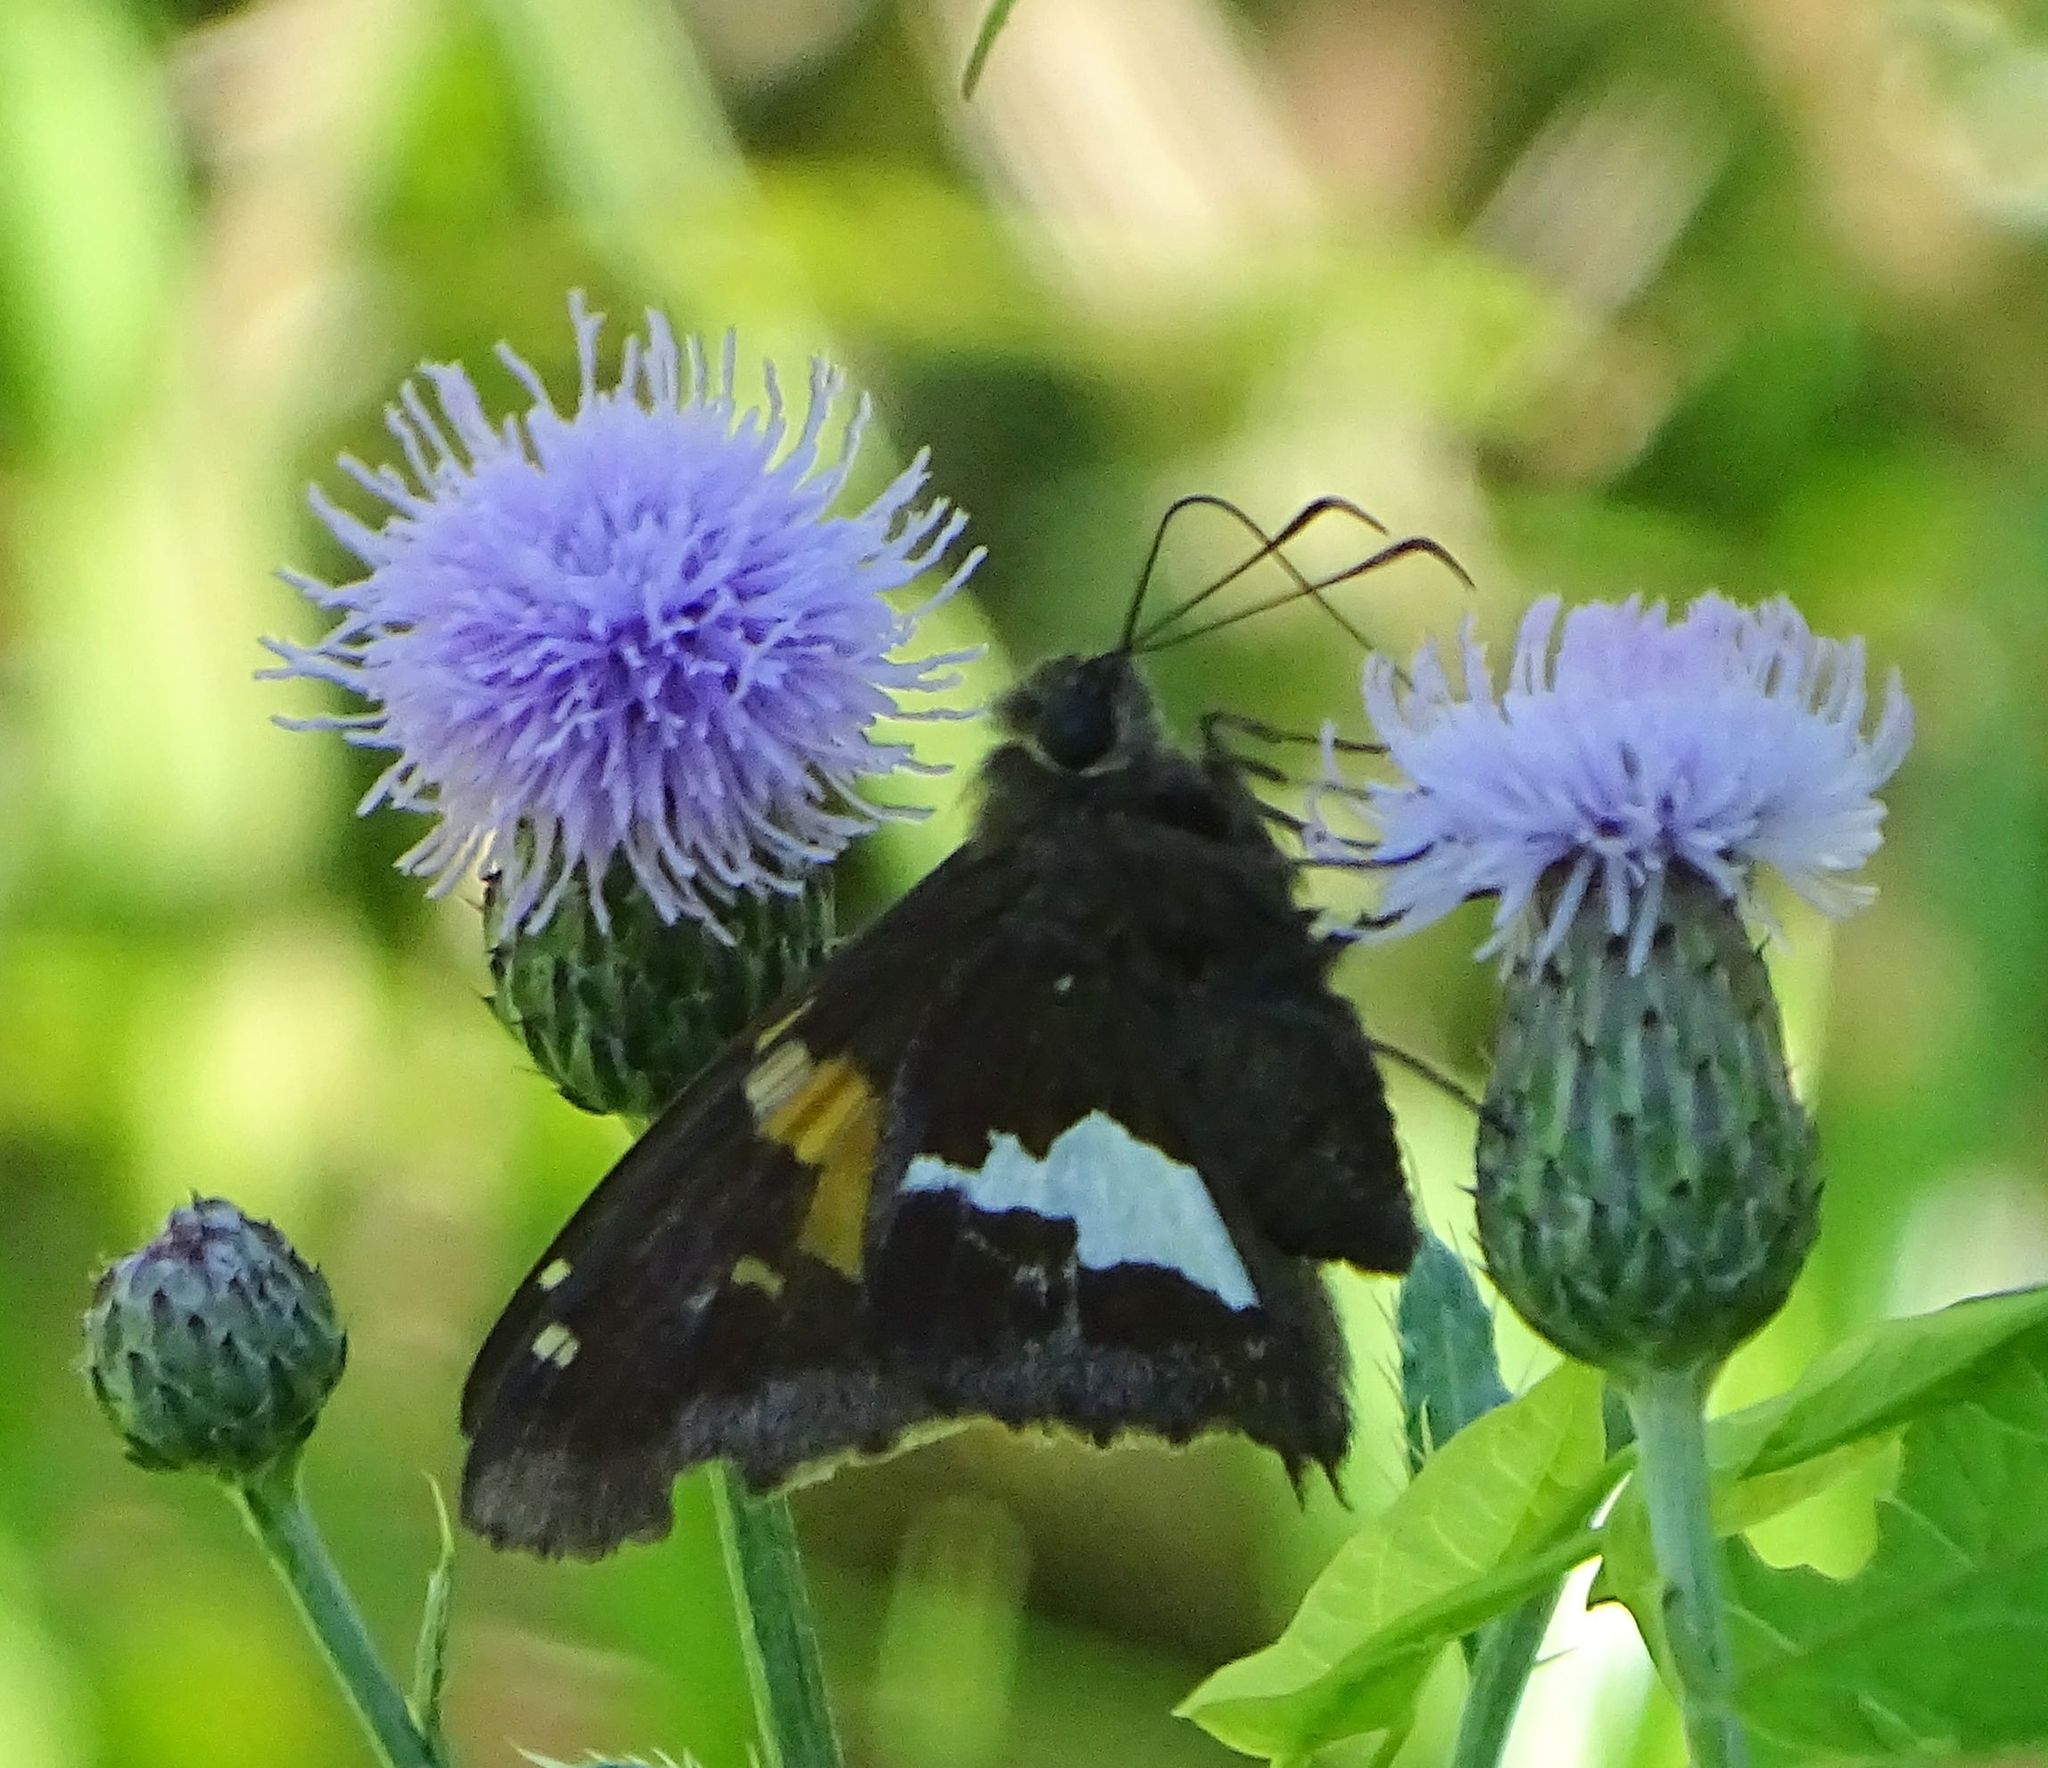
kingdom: Animalia
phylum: Arthropoda
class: Insecta
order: Lepidoptera
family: Hesperiidae
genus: Epargyreus
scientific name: Epargyreus clarus
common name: Silver-spotted skipper
